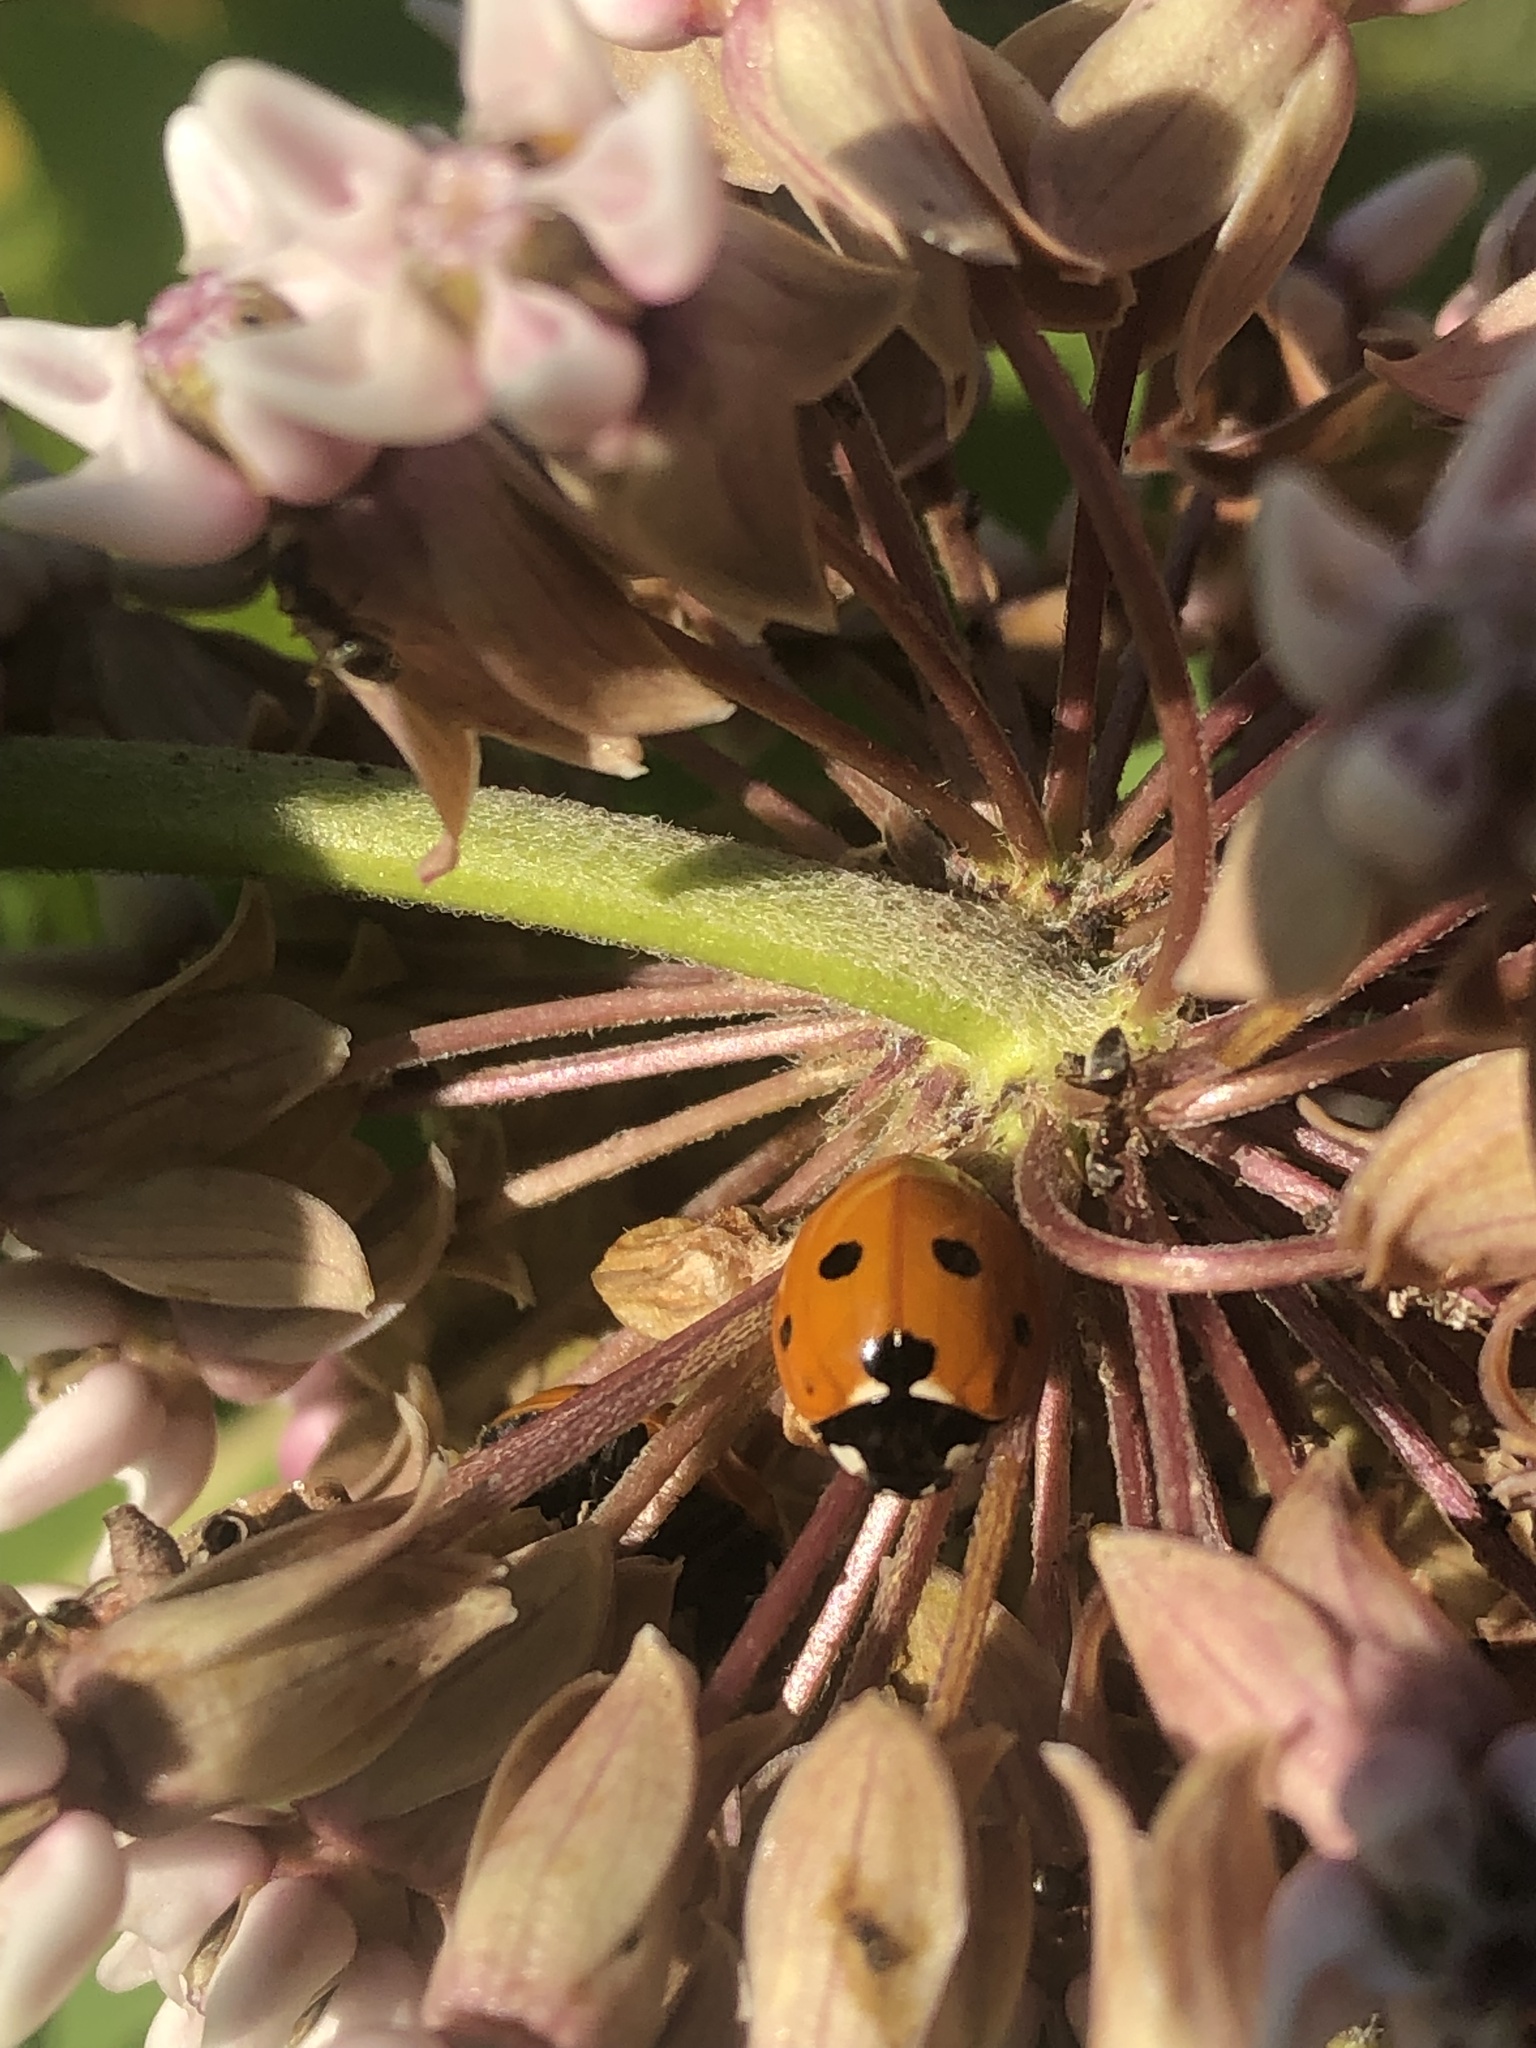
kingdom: Animalia
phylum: Arthropoda
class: Insecta
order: Coleoptera
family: Coccinellidae
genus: Coccinella
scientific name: Coccinella septempunctata
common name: Sevenspotted lady beetle
